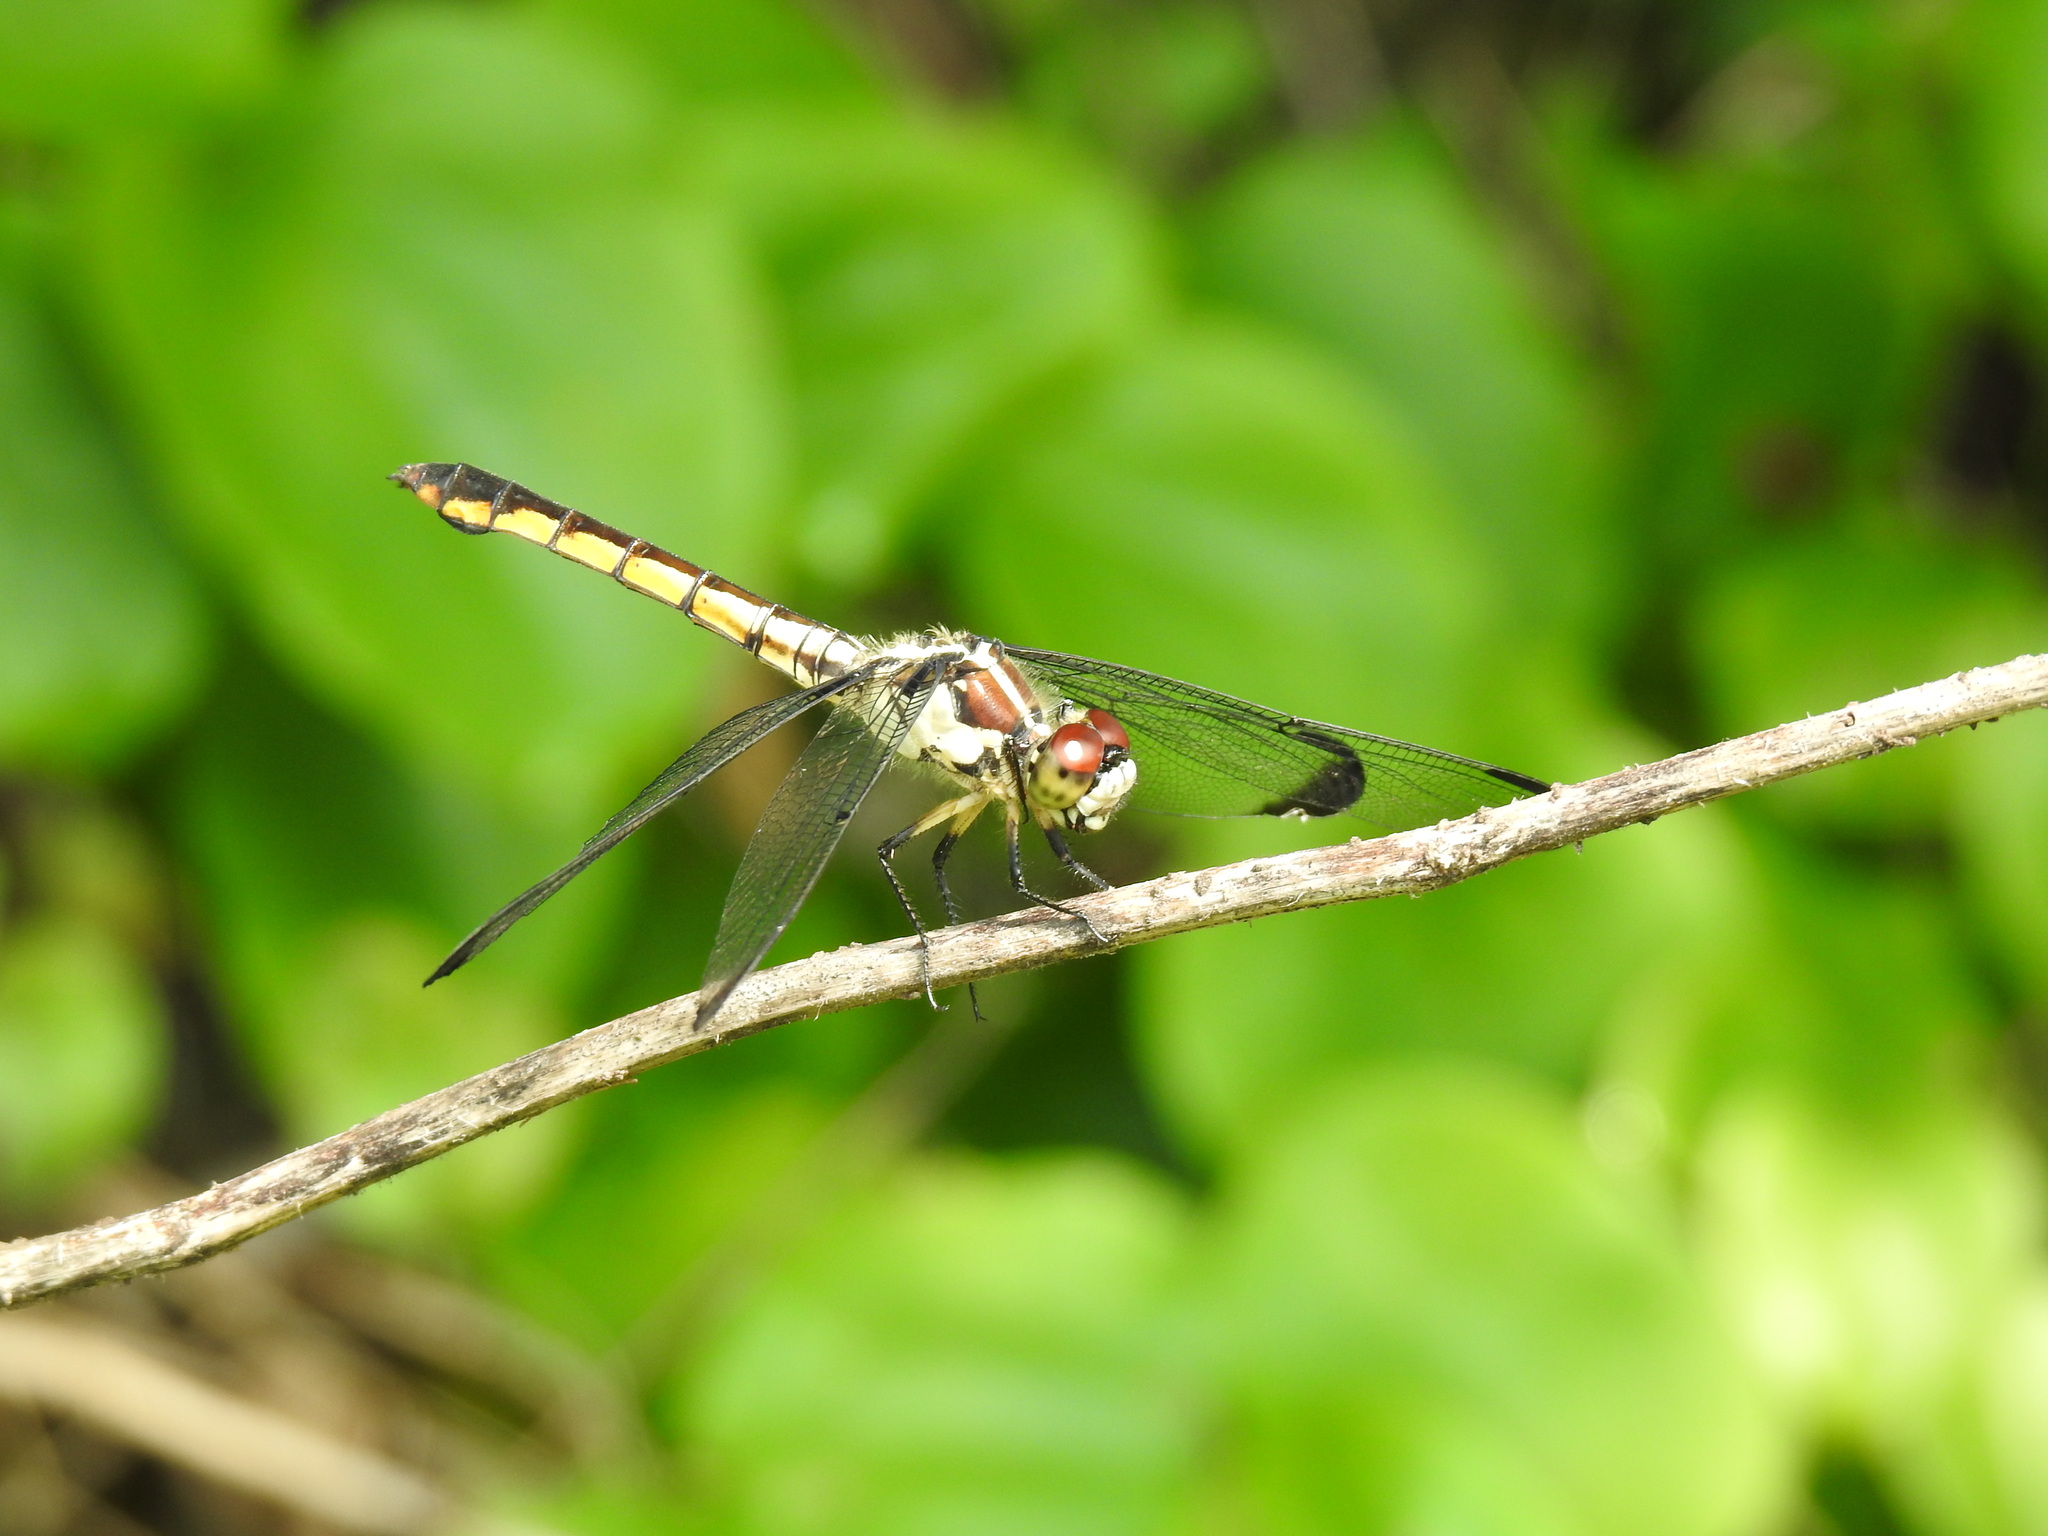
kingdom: Animalia
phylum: Arthropoda
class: Insecta
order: Odonata
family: Libellulidae
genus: Libellula
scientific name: Libellula vibrans
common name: Great blue skimmer
